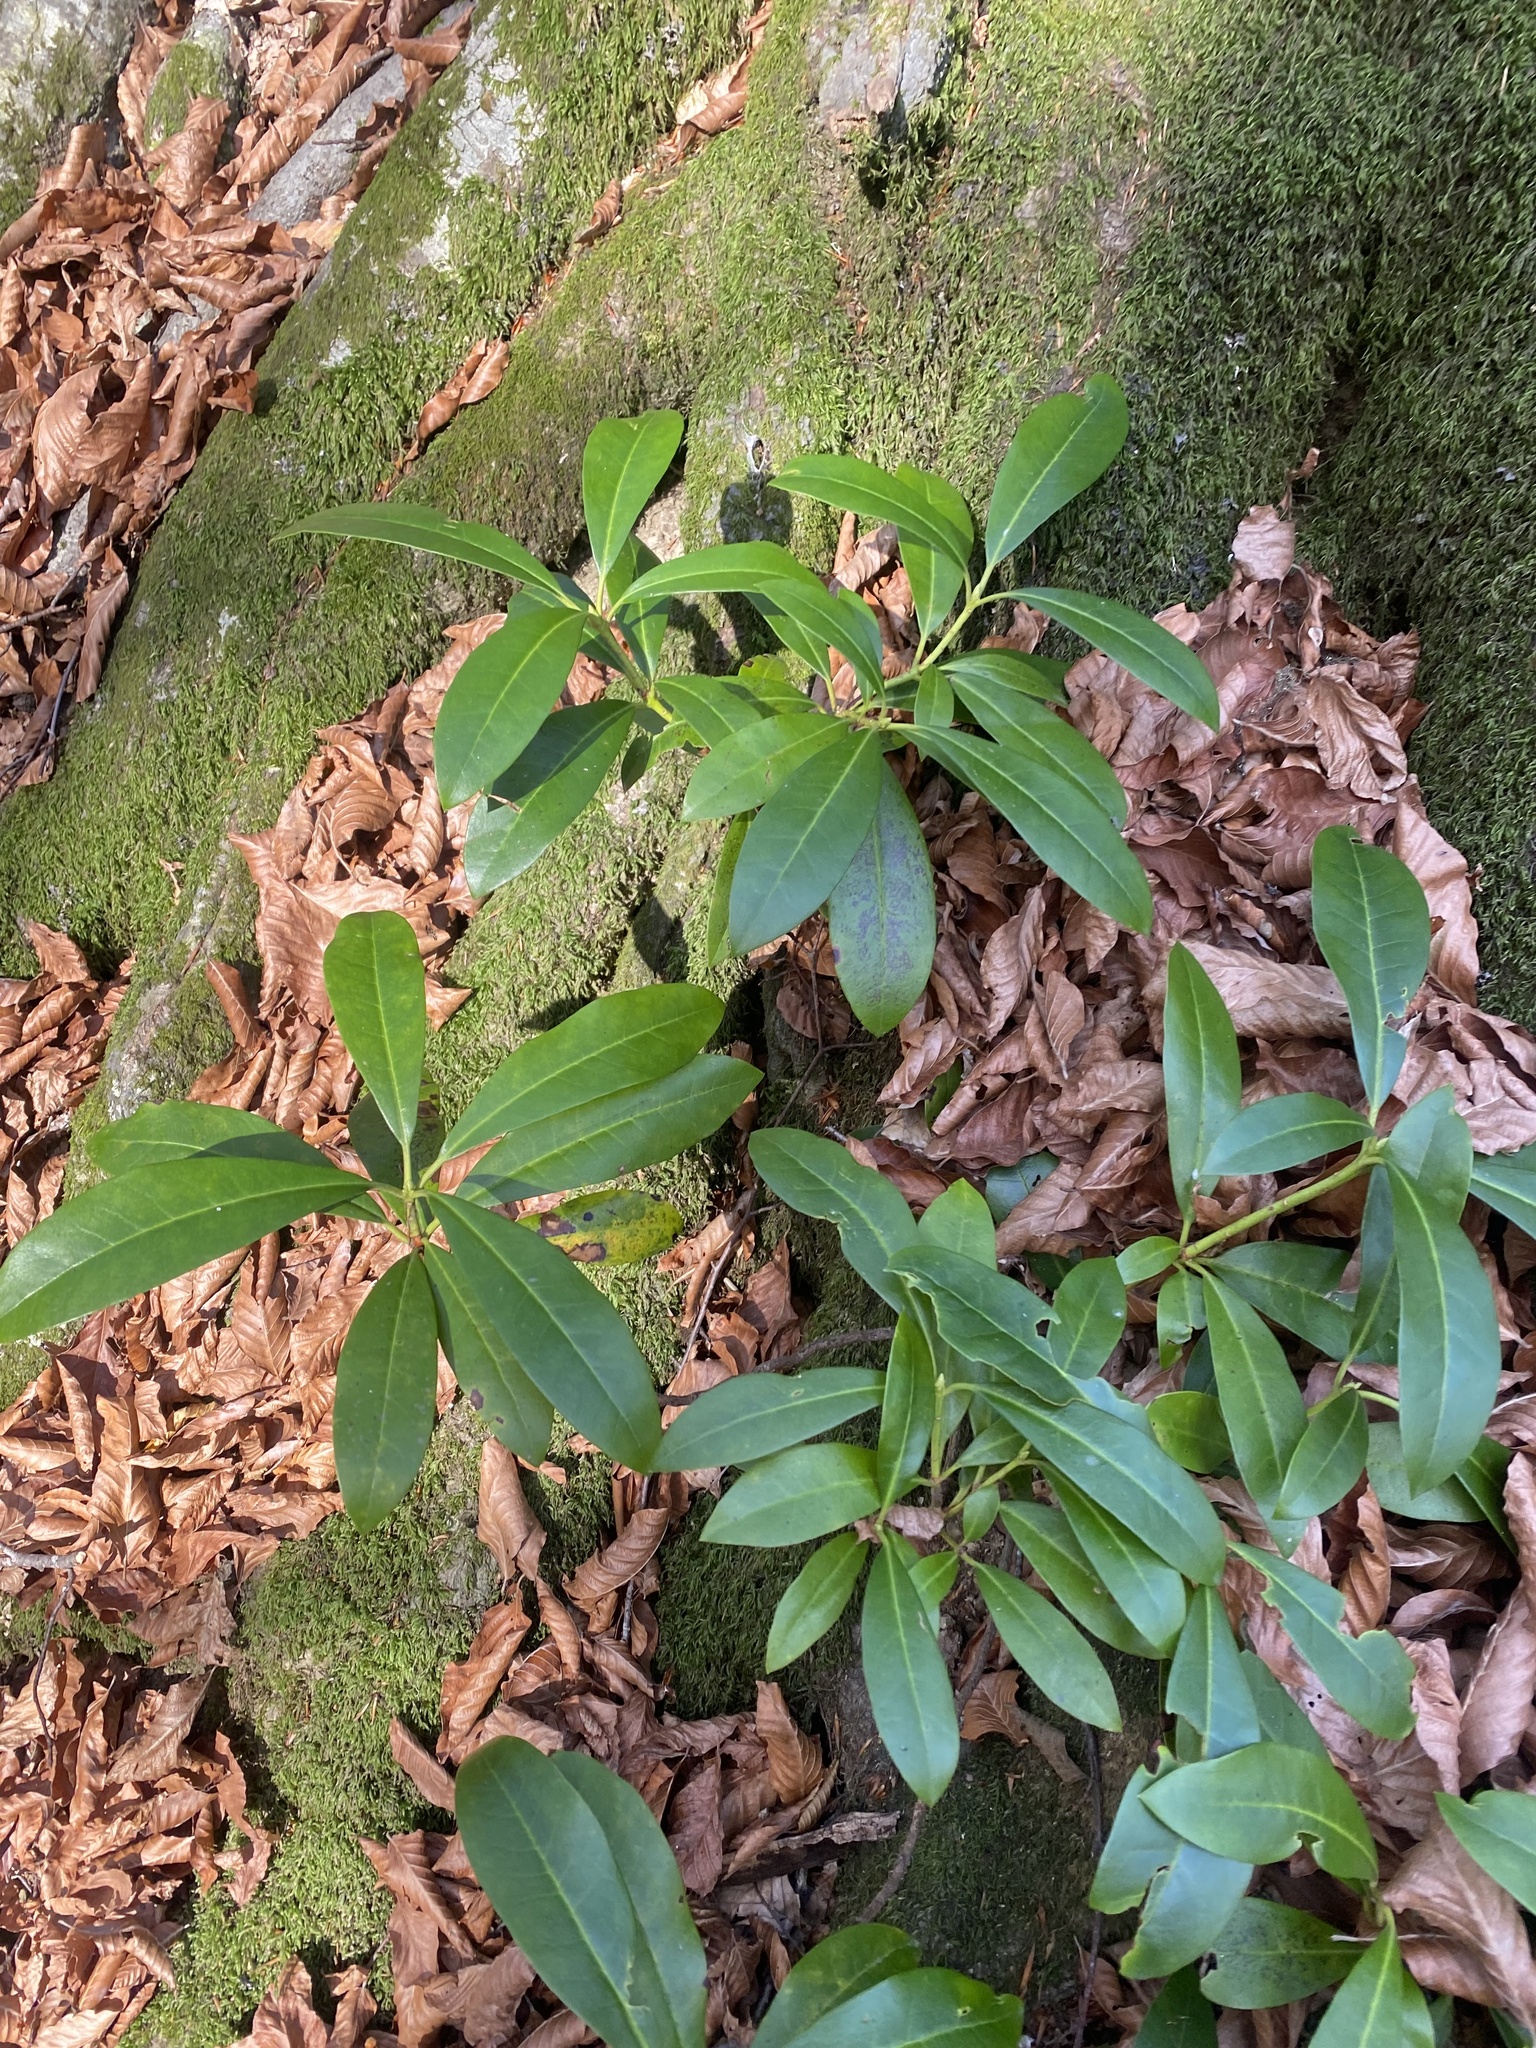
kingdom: Plantae
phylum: Tracheophyta
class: Magnoliopsida
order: Ericales
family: Ericaceae
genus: Rhododendron
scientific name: Rhododendron ponticum
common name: Rhododendron
